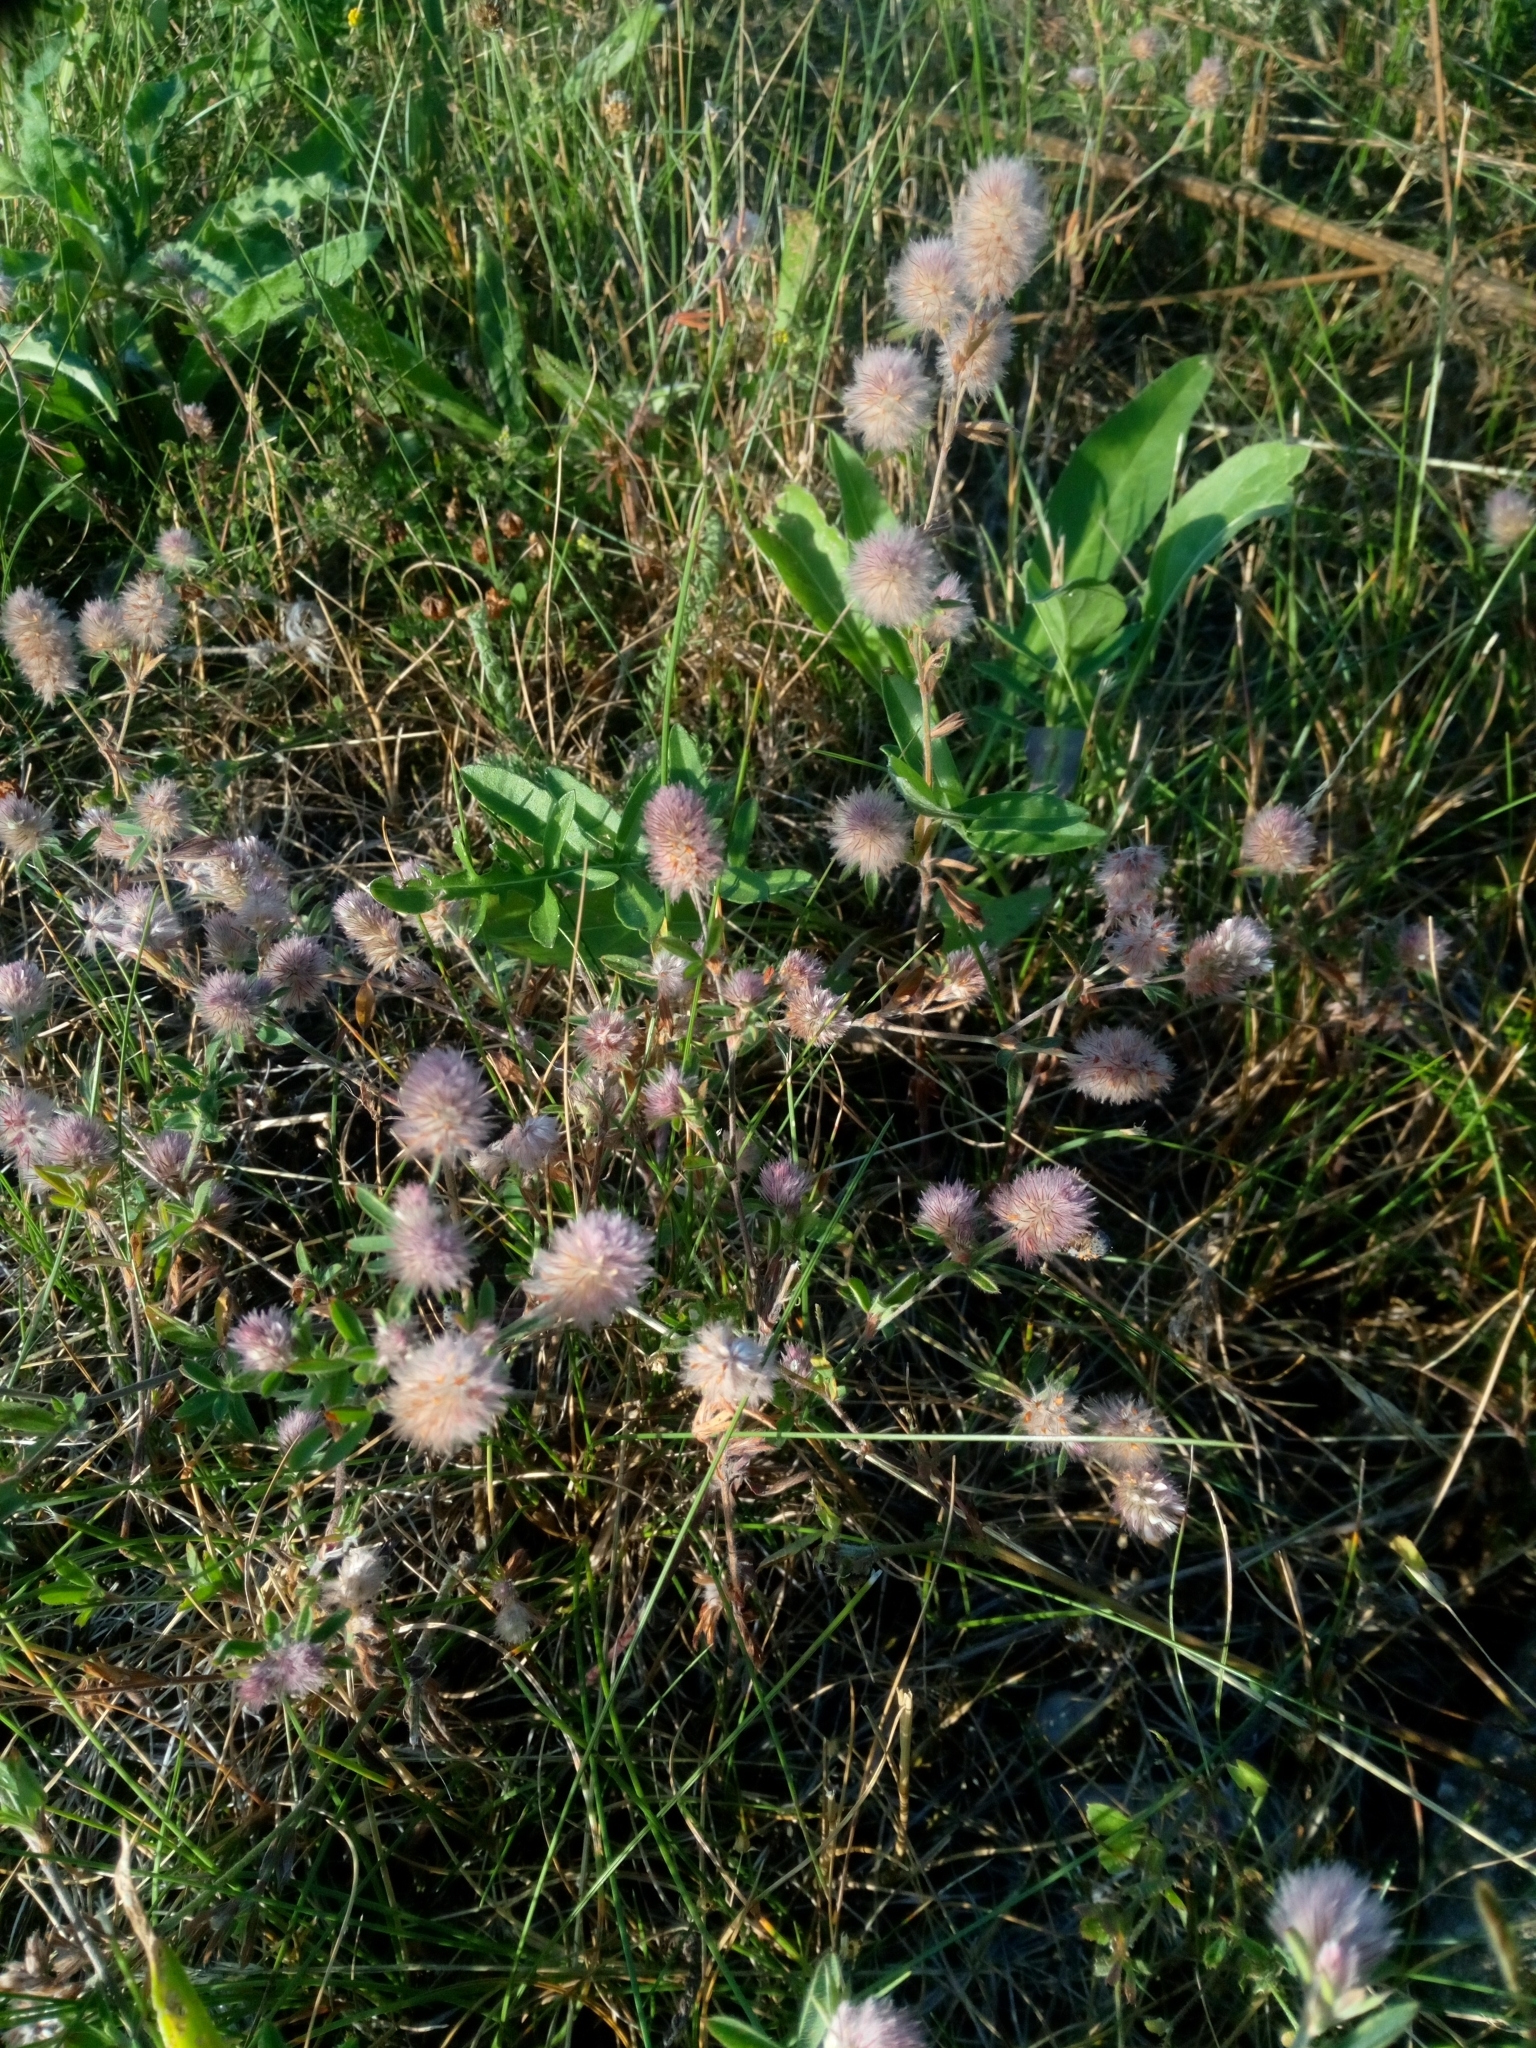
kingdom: Plantae
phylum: Tracheophyta
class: Magnoliopsida
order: Fabales
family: Fabaceae
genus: Trifolium
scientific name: Trifolium arvense
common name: Hare's-foot clover
